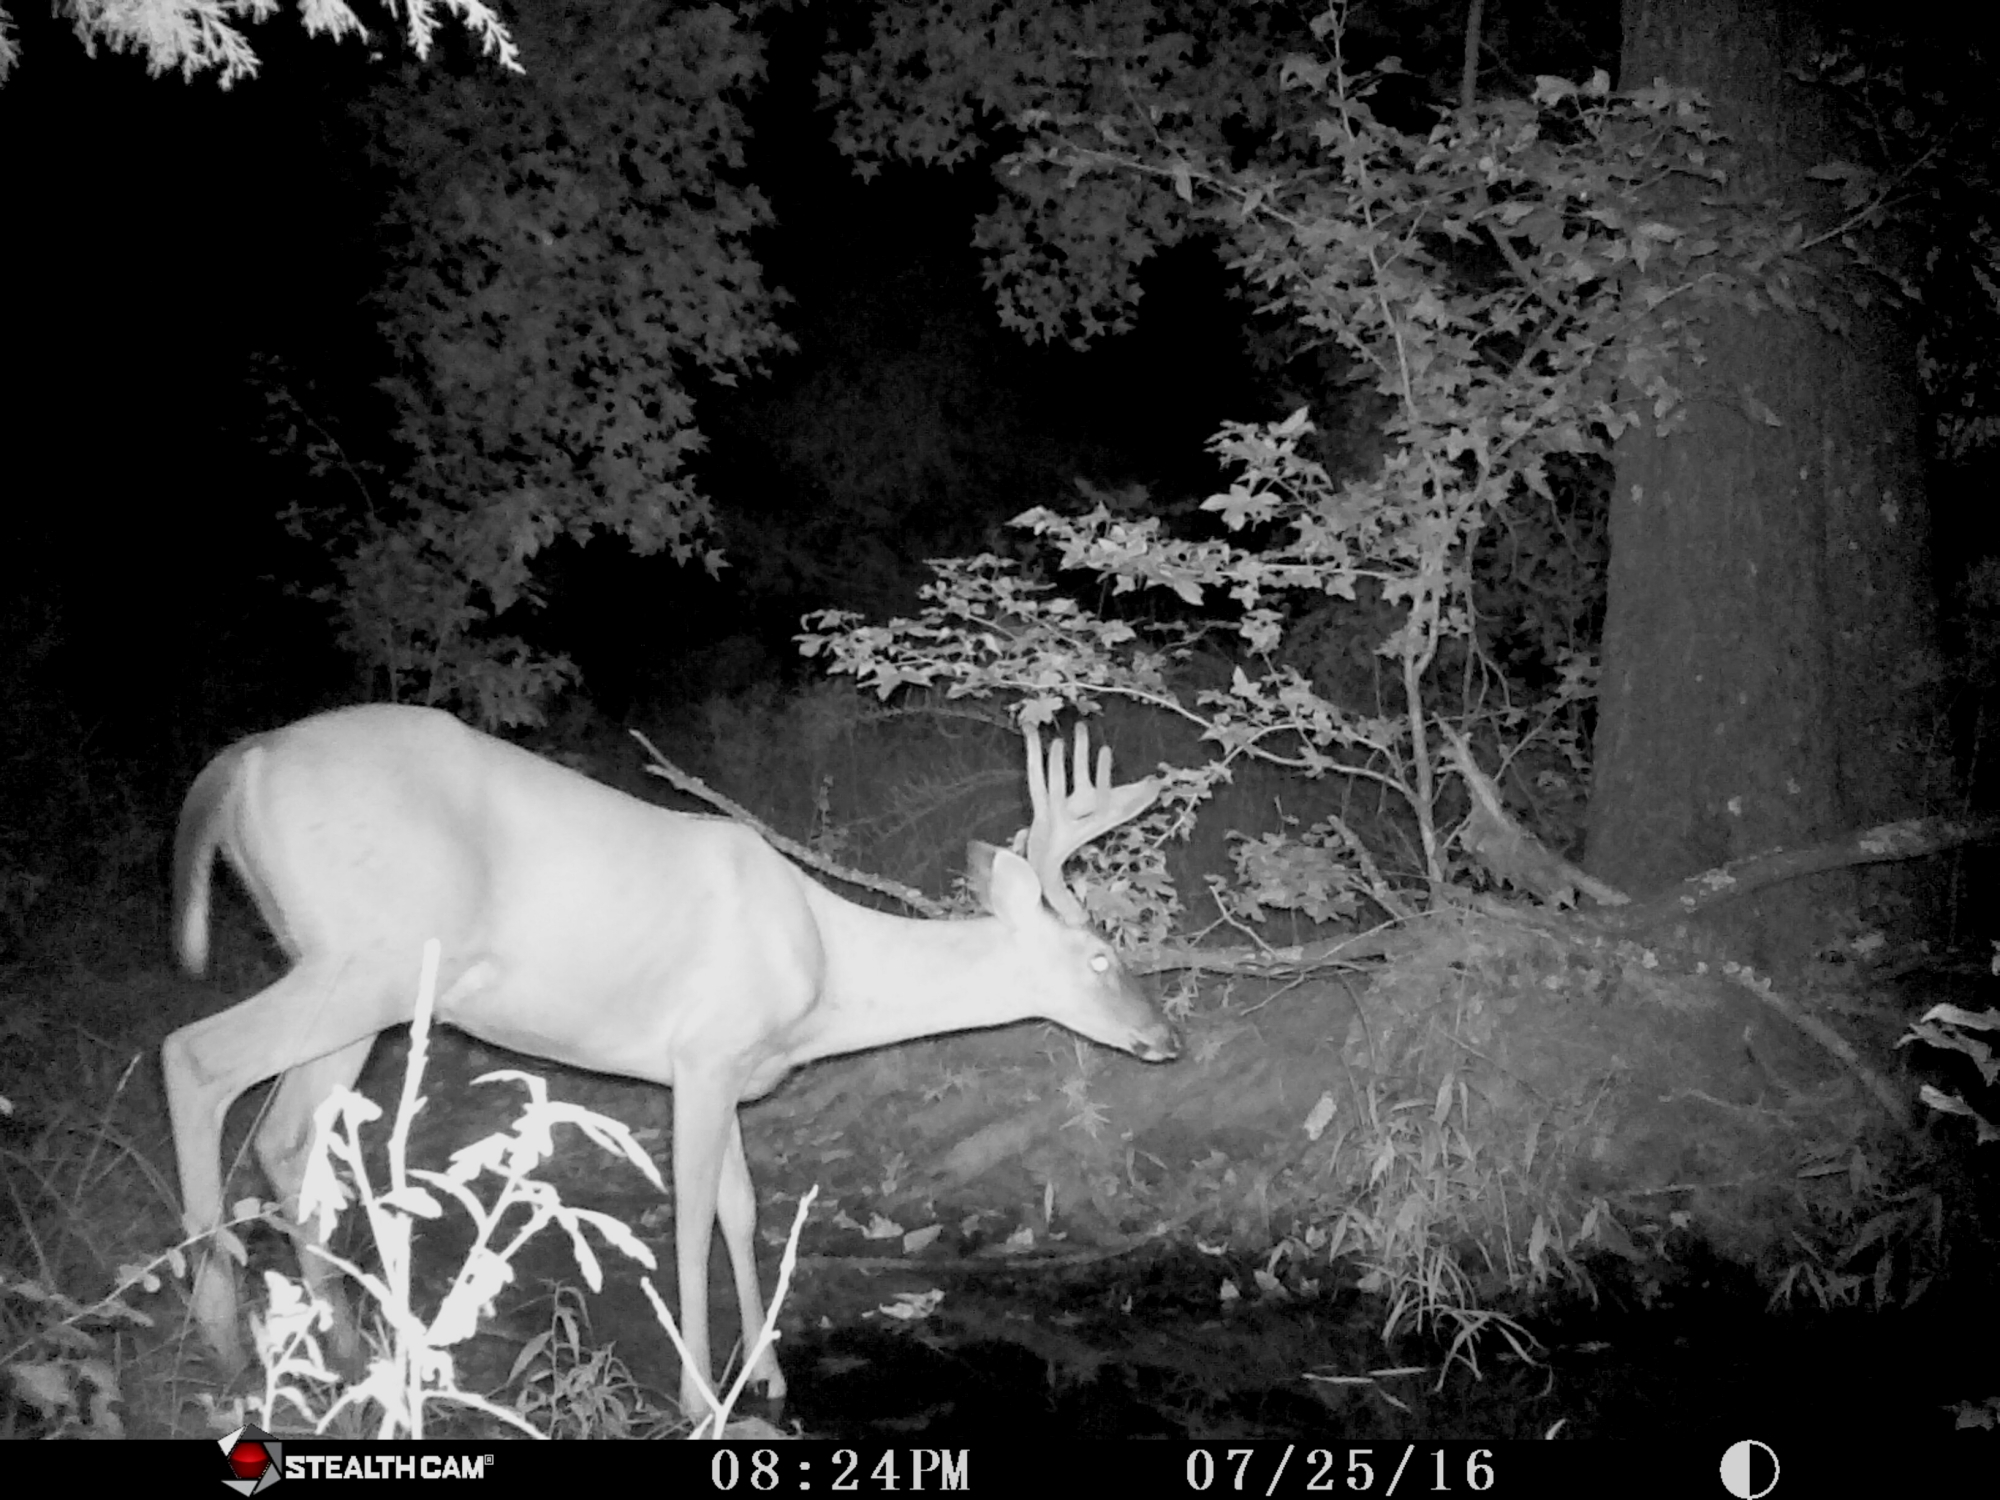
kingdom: Animalia
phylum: Chordata
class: Mammalia
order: Artiodactyla
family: Cervidae
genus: Odocoileus
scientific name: Odocoileus virginianus
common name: White-tailed deer
